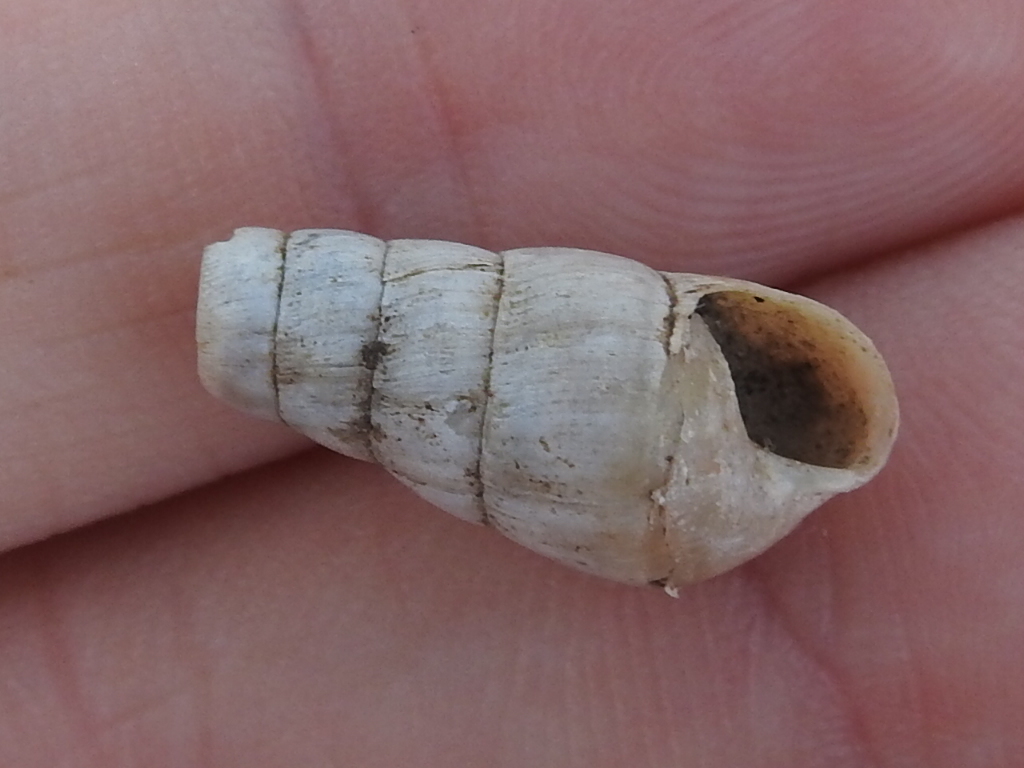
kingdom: Animalia
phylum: Mollusca
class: Gastropoda
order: Stylommatophora
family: Achatinidae
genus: Rumina
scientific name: Rumina decollata
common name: Decollate snail
